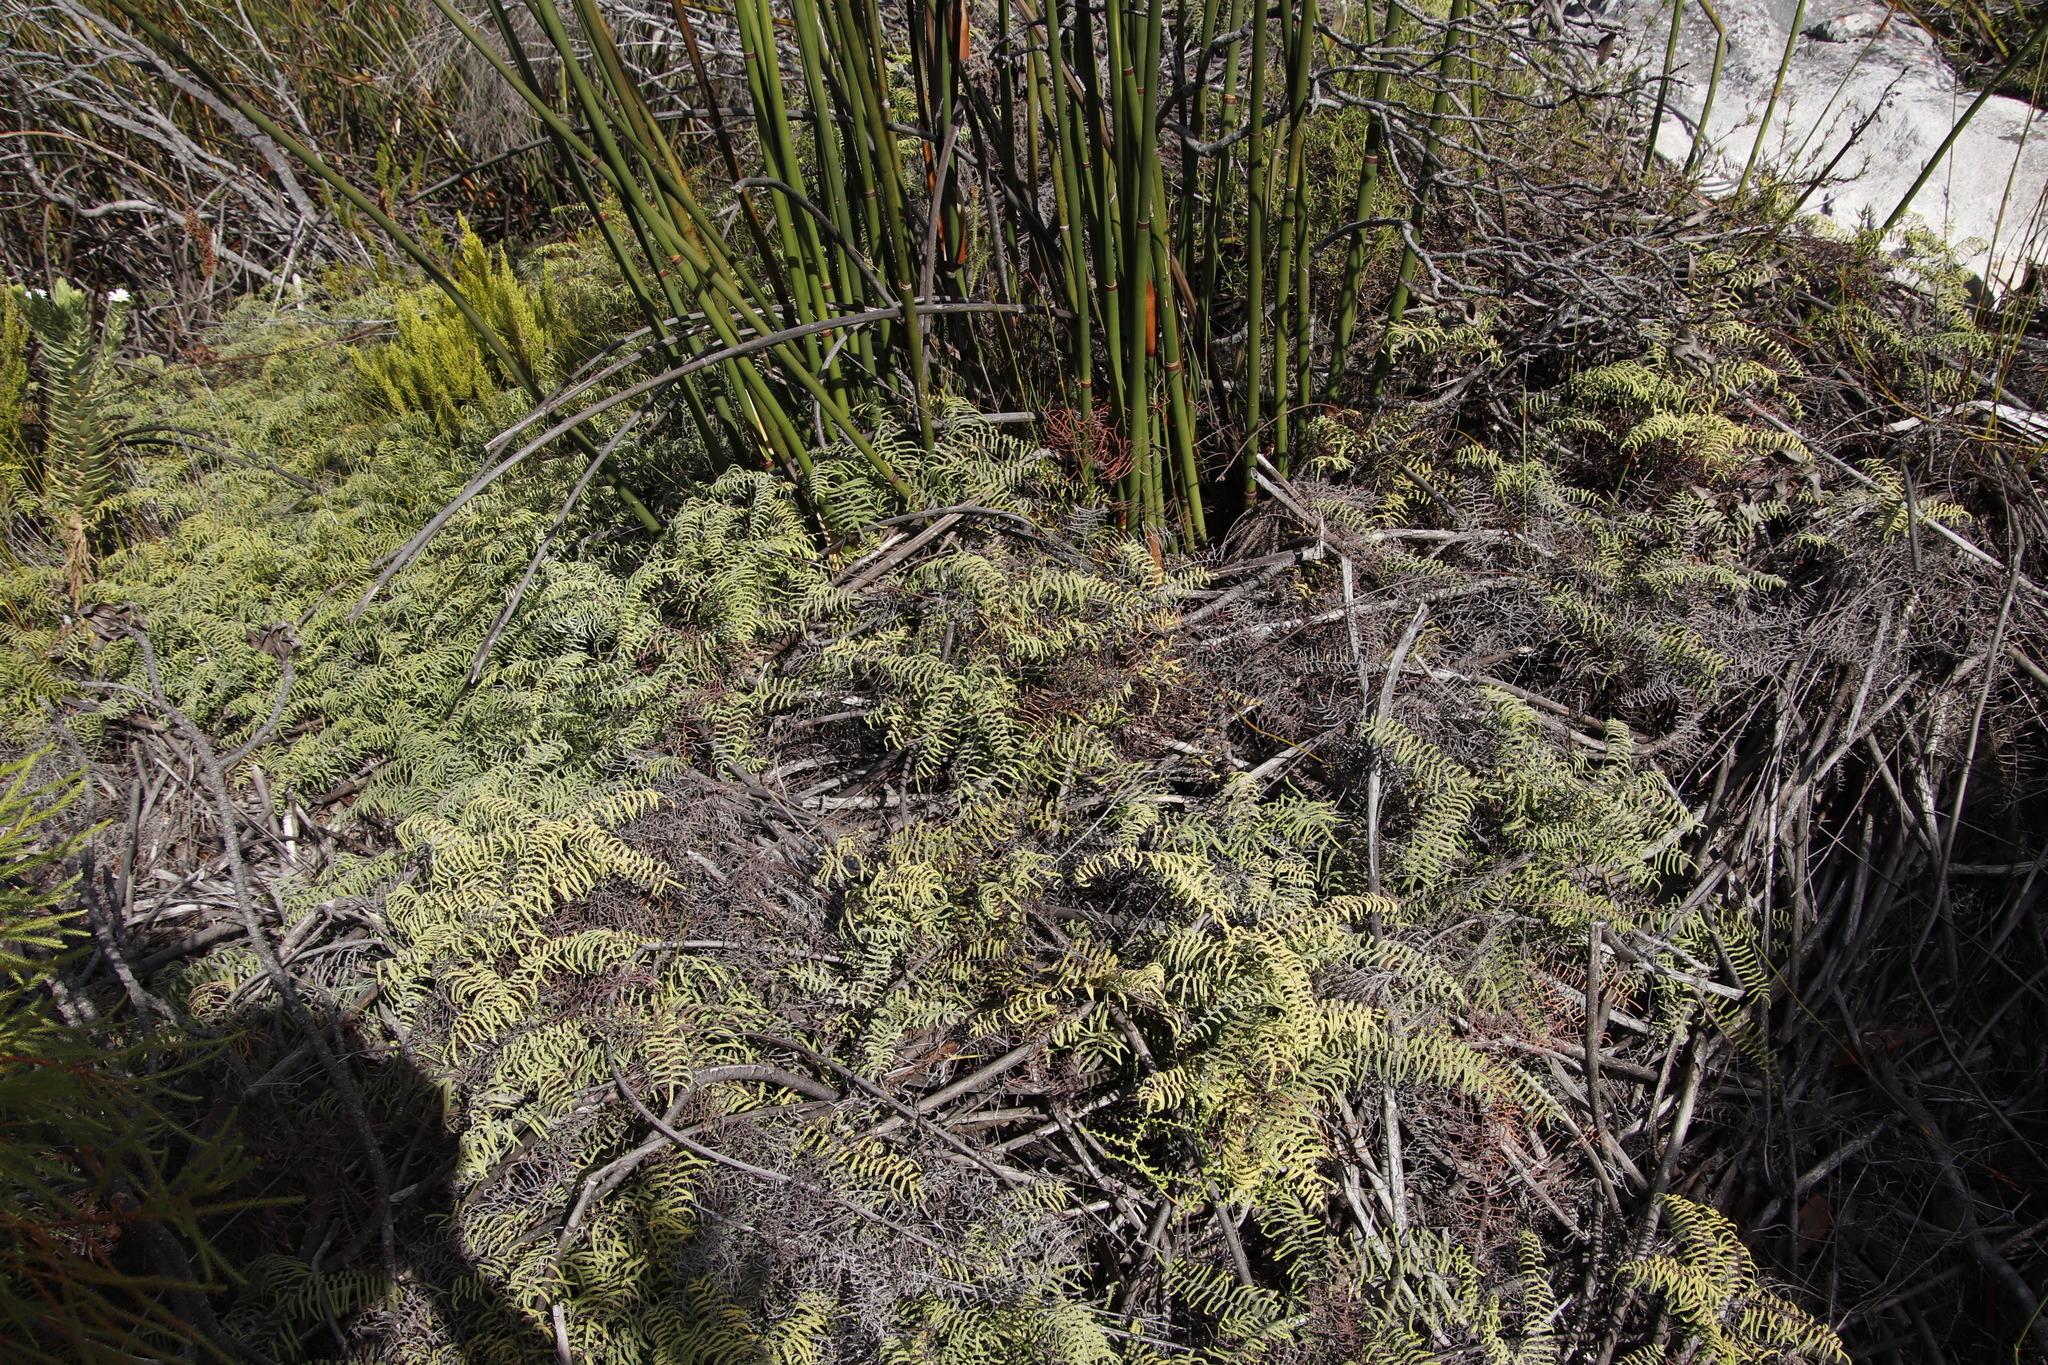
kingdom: Plantae
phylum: Tracheophyta
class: Polypodiopsida
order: Gleicheniales
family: Gleicheniaceae
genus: Gleichenia
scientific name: Gleichenia polypodioides
